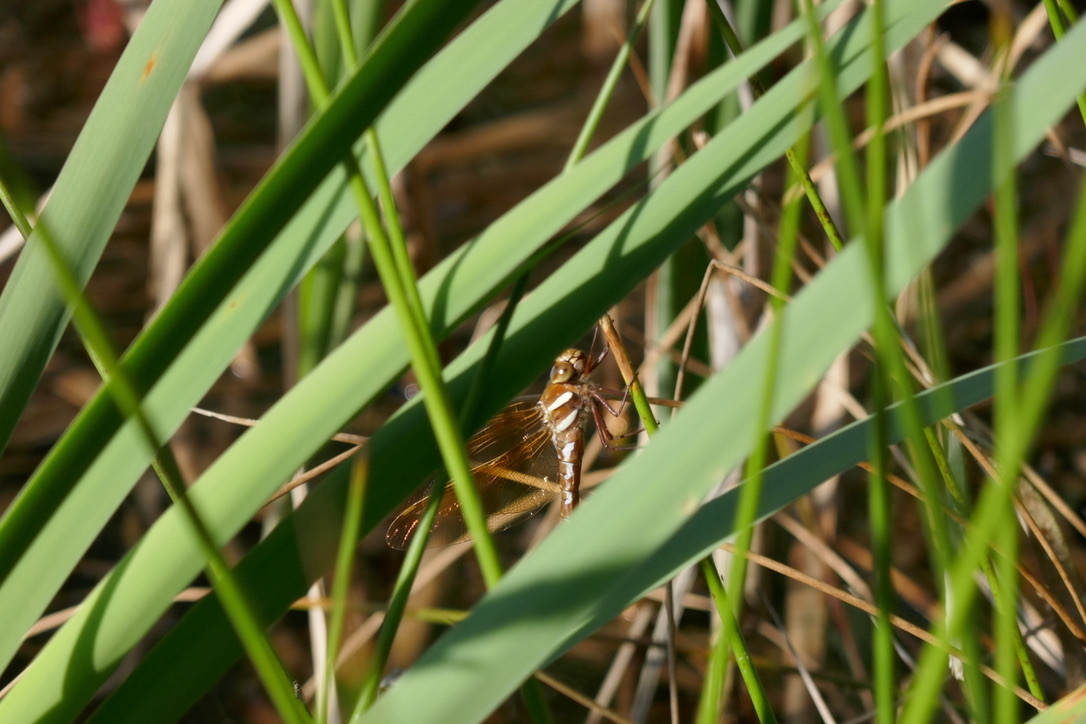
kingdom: Animalia
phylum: Arthropoda
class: Insecta
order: Odonata
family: Aeshnidae
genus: Aeshna
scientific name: Aeshna grandis
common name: Brown hawker
